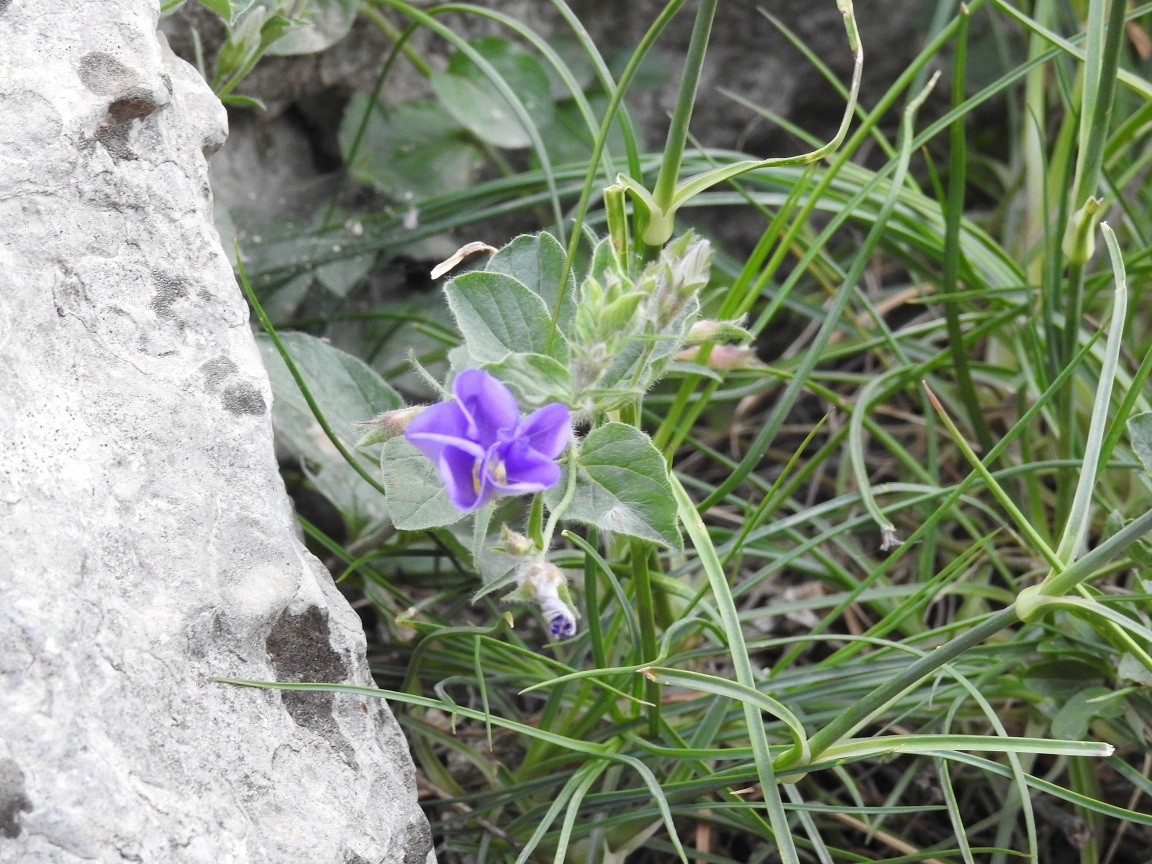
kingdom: Plantae
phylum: Tracheophyta
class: Magnoliopsida
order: Solanales
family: Convolvulaceae
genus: Convolvulus
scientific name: Convolvulus siculus
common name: Small blue-convolvulus
